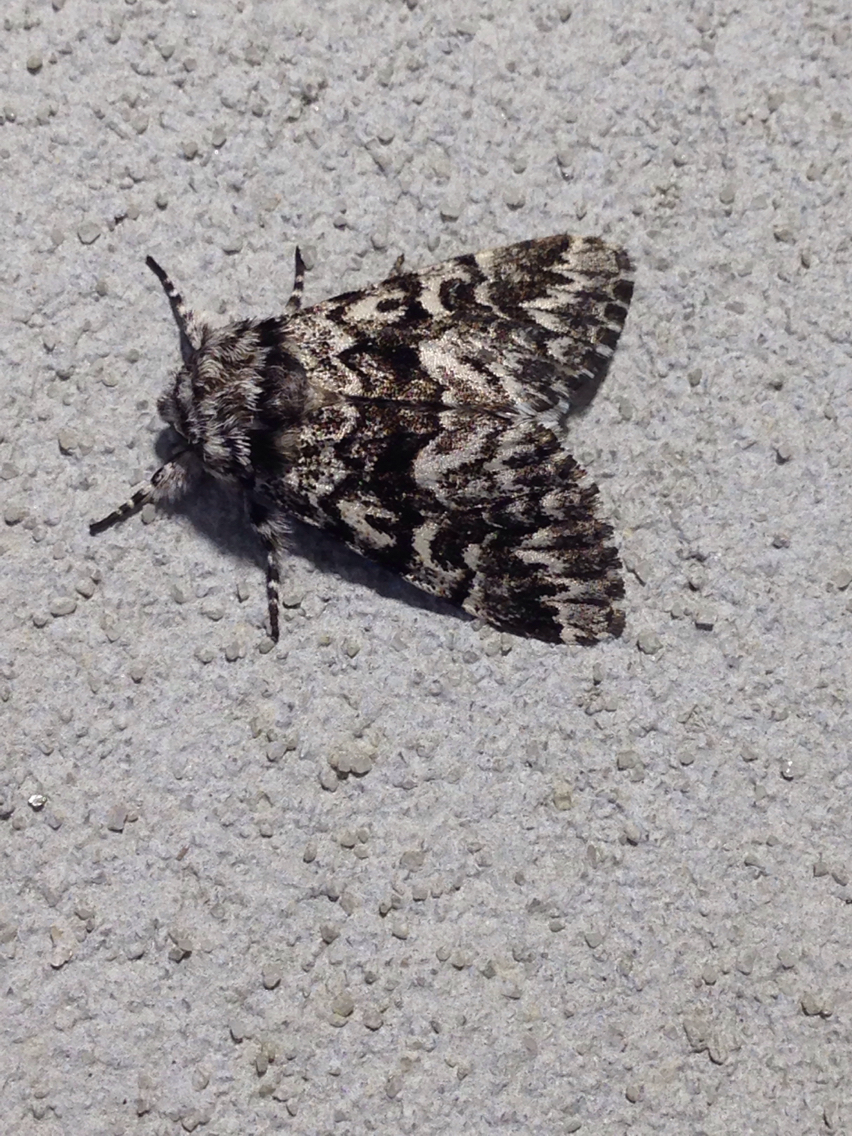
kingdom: Animalia
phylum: Arthropoda
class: Insecta
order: Lepidoptera
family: Noctuidae
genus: Panthea
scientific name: Panthea acronyctoides
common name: Black zigzag moth
